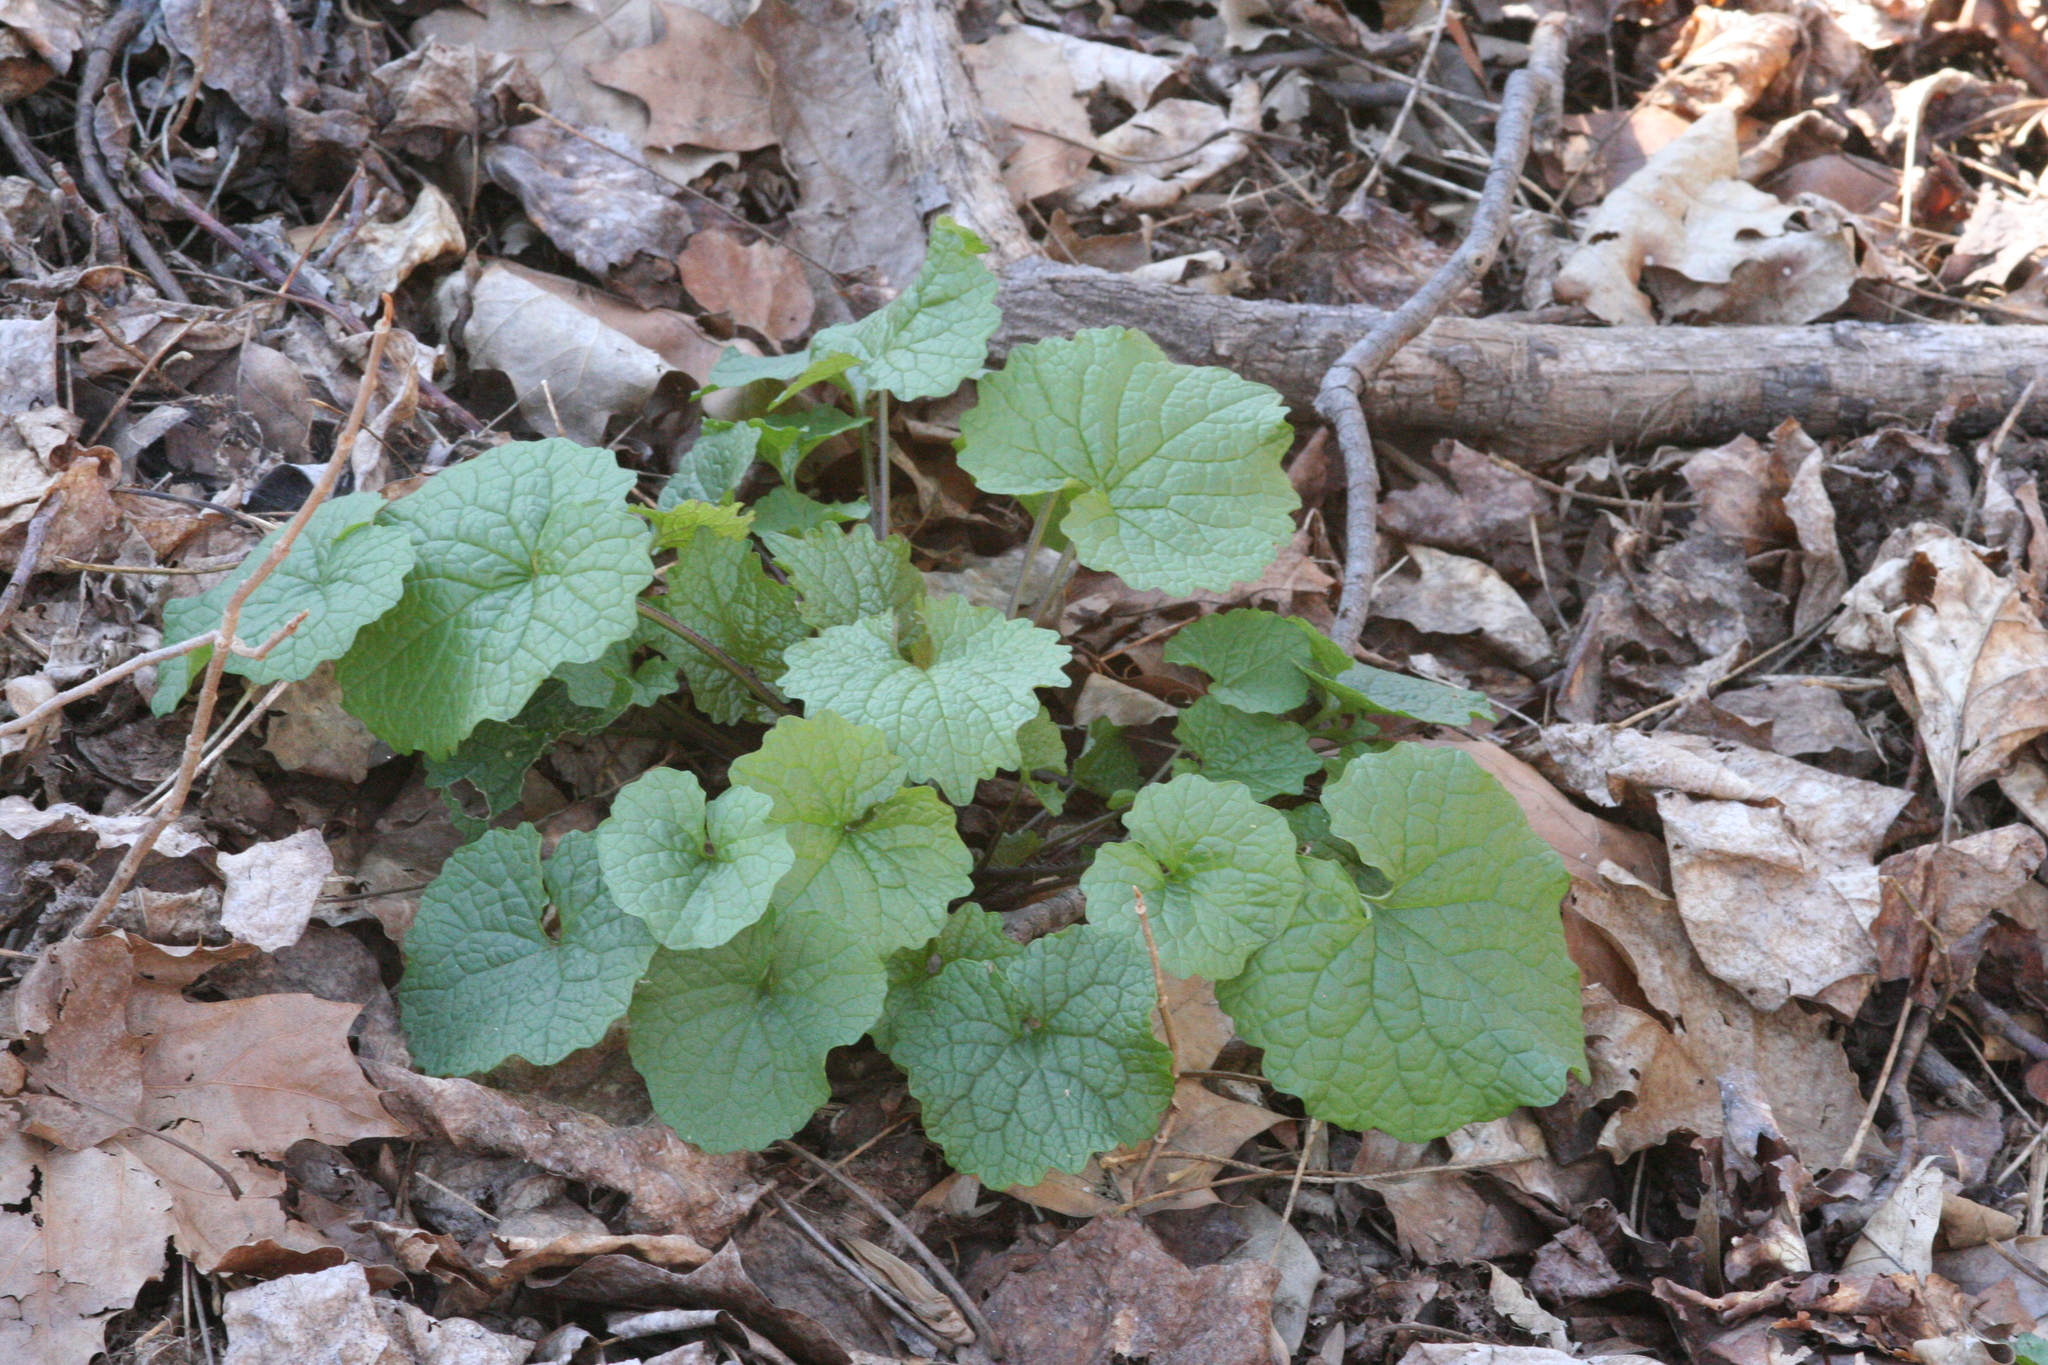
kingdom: Plantae
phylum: Tracheophyta
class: Magnoliopsida
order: Brassicales
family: Brassicaceae
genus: Alliaria
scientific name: Alliaria petiolata
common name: Garlic mustard
